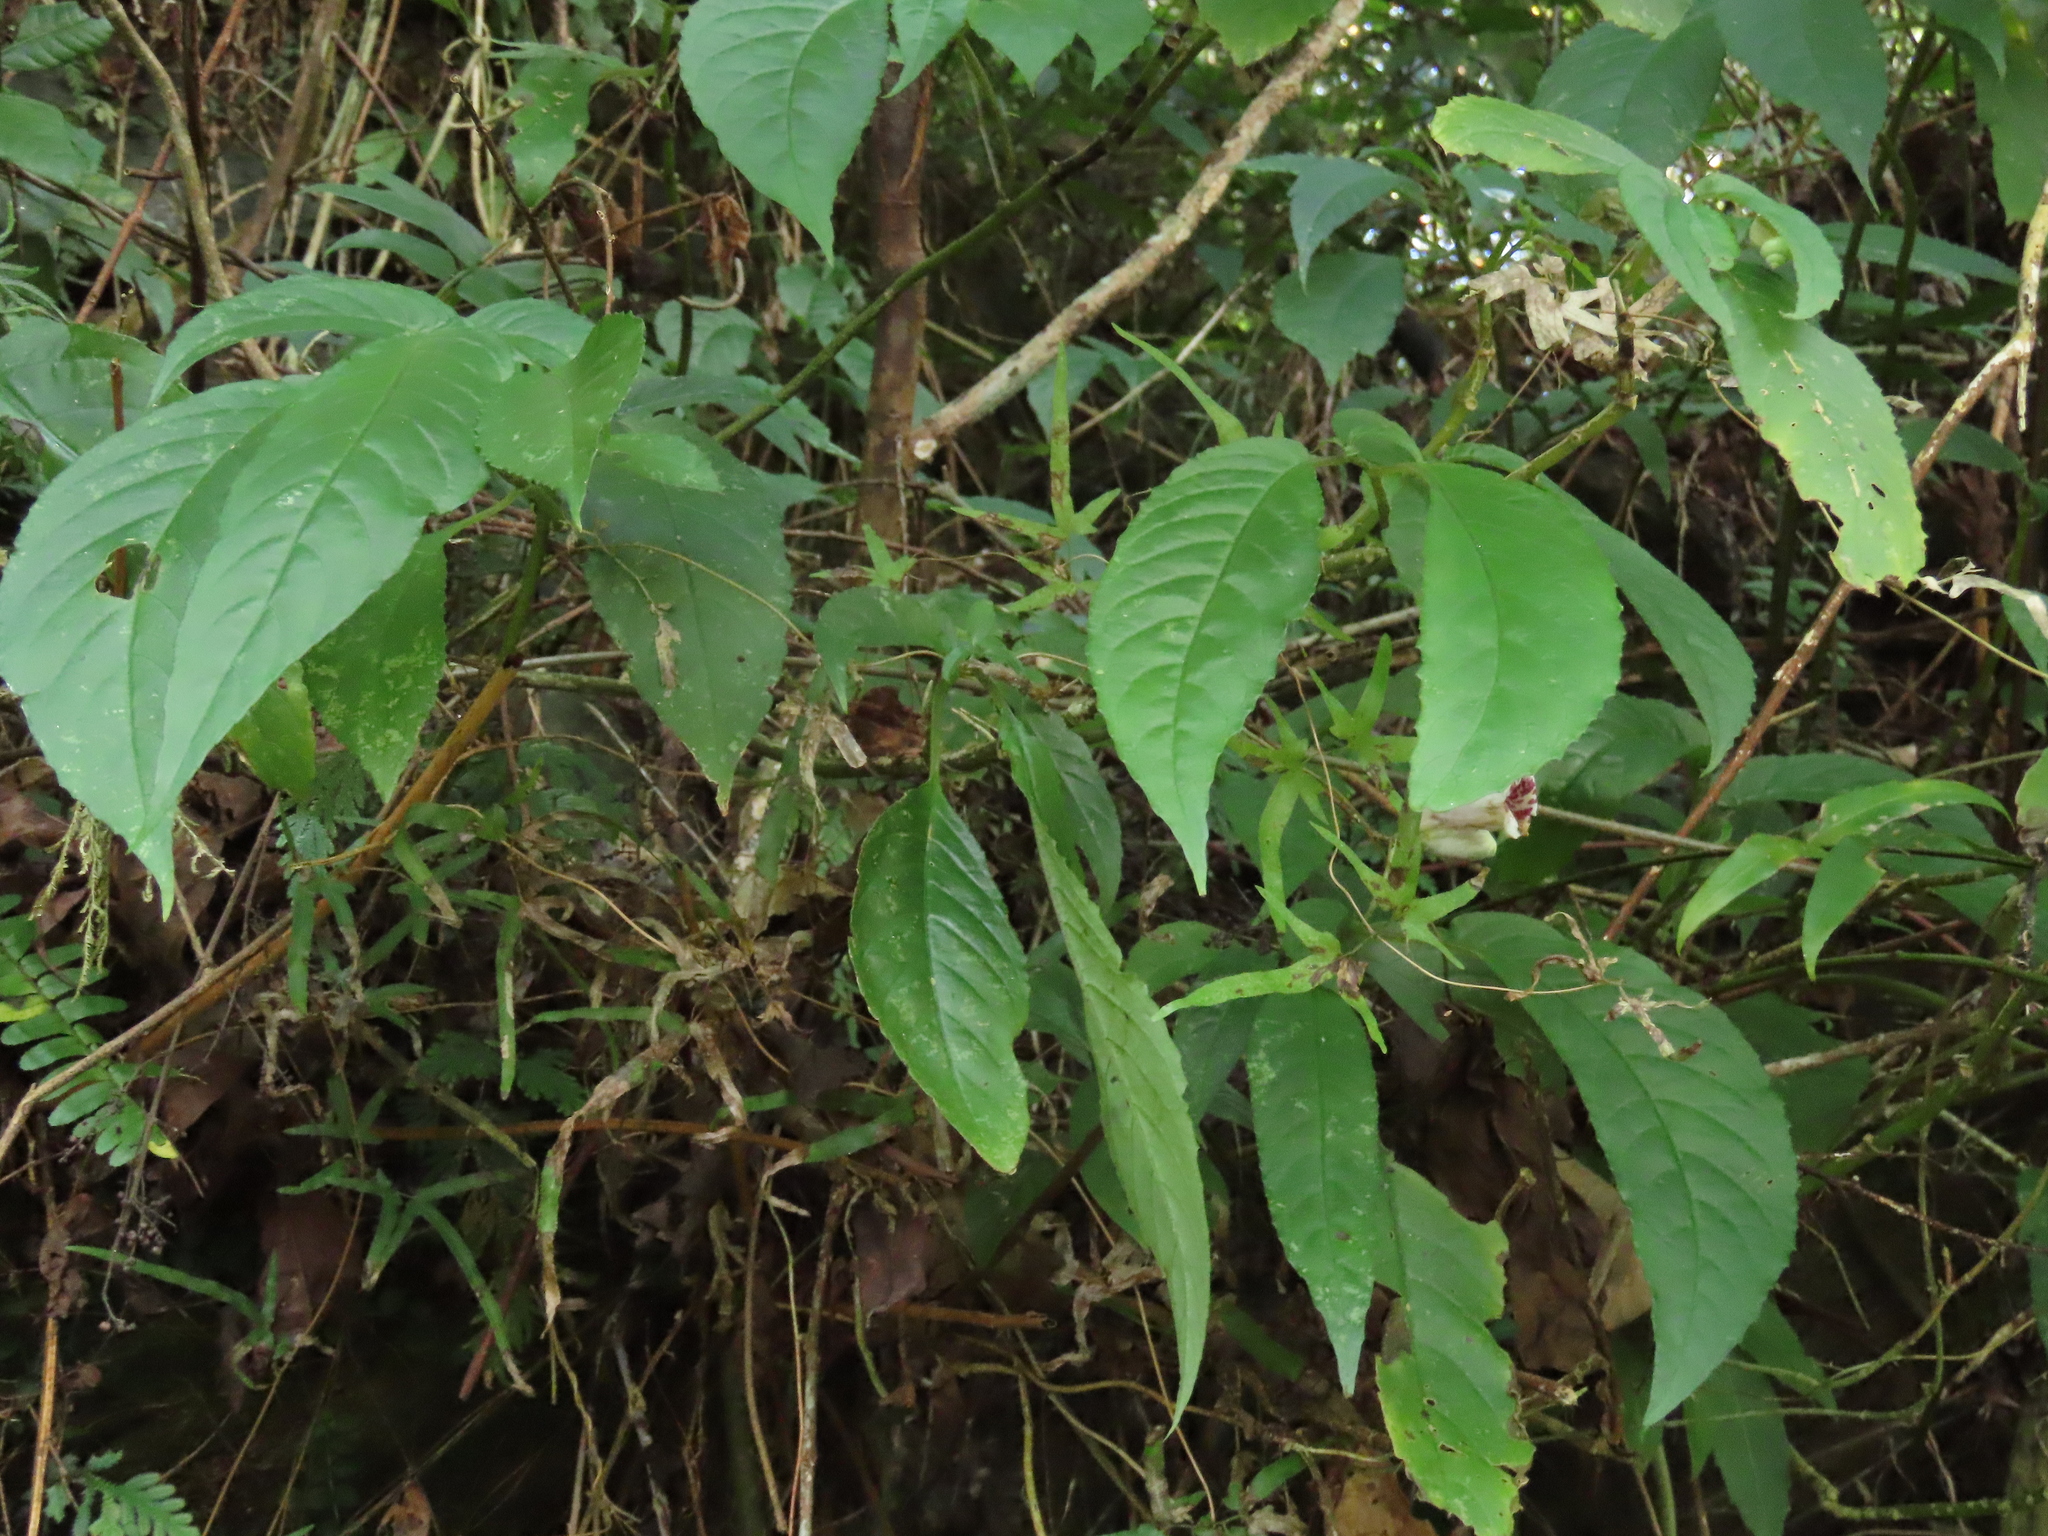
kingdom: Plantae
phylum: Tracheophyta
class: Magnoliopsida
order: Lamiales
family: Gesneriaceae
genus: Hemiboea
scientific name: Hemiboea bicornuta
